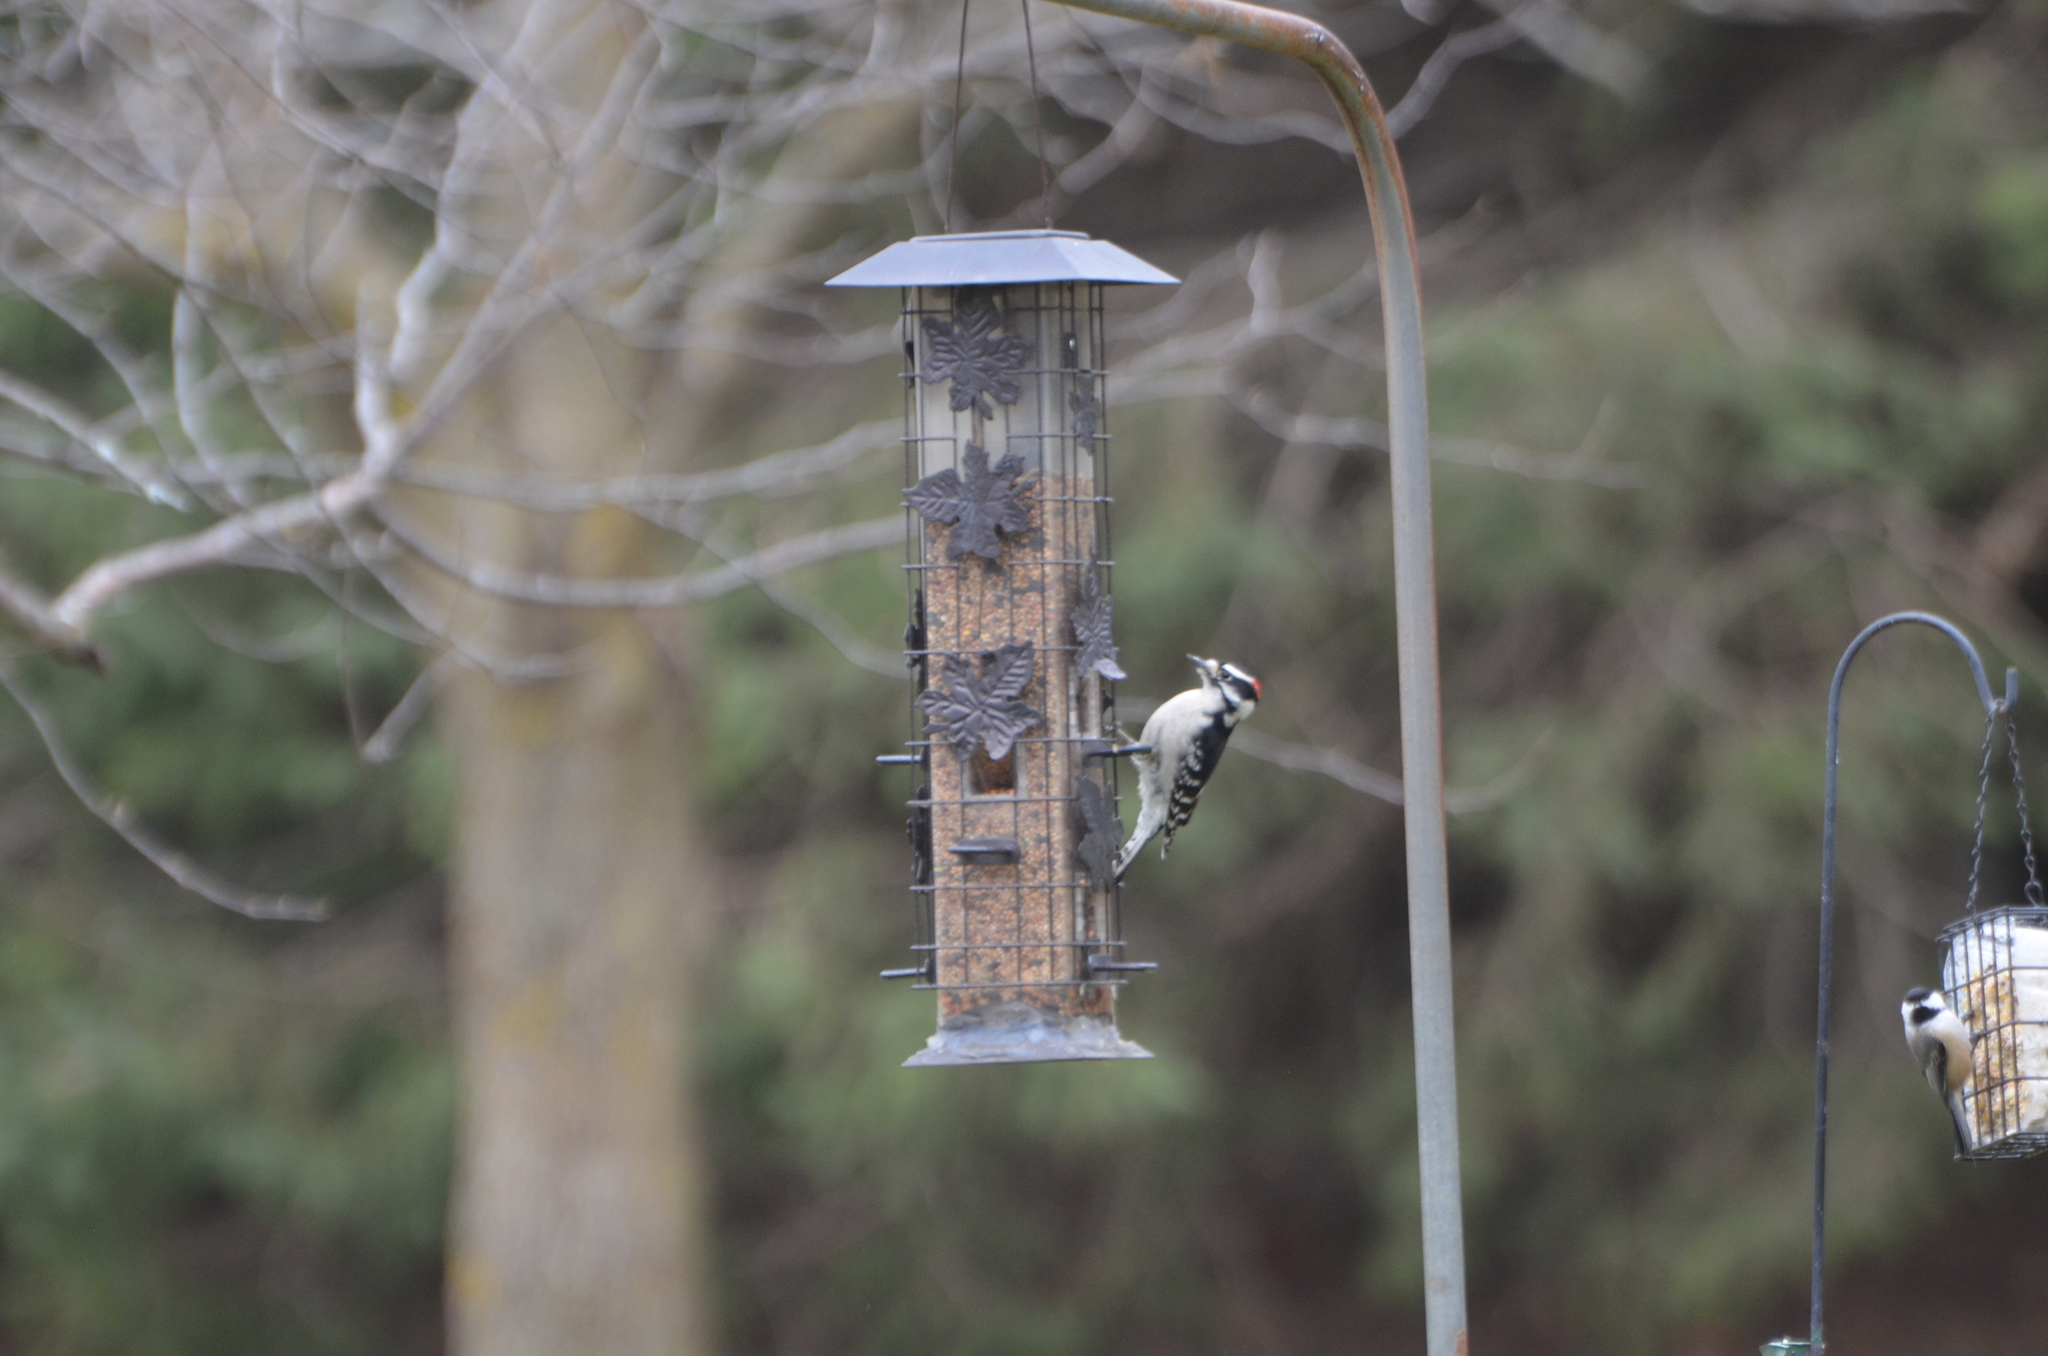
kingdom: Animalia
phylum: Chordata
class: Aves
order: Piciformes
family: Picidae
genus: Dryobates
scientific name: Dryobates pubescens
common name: Downy woodpecker
